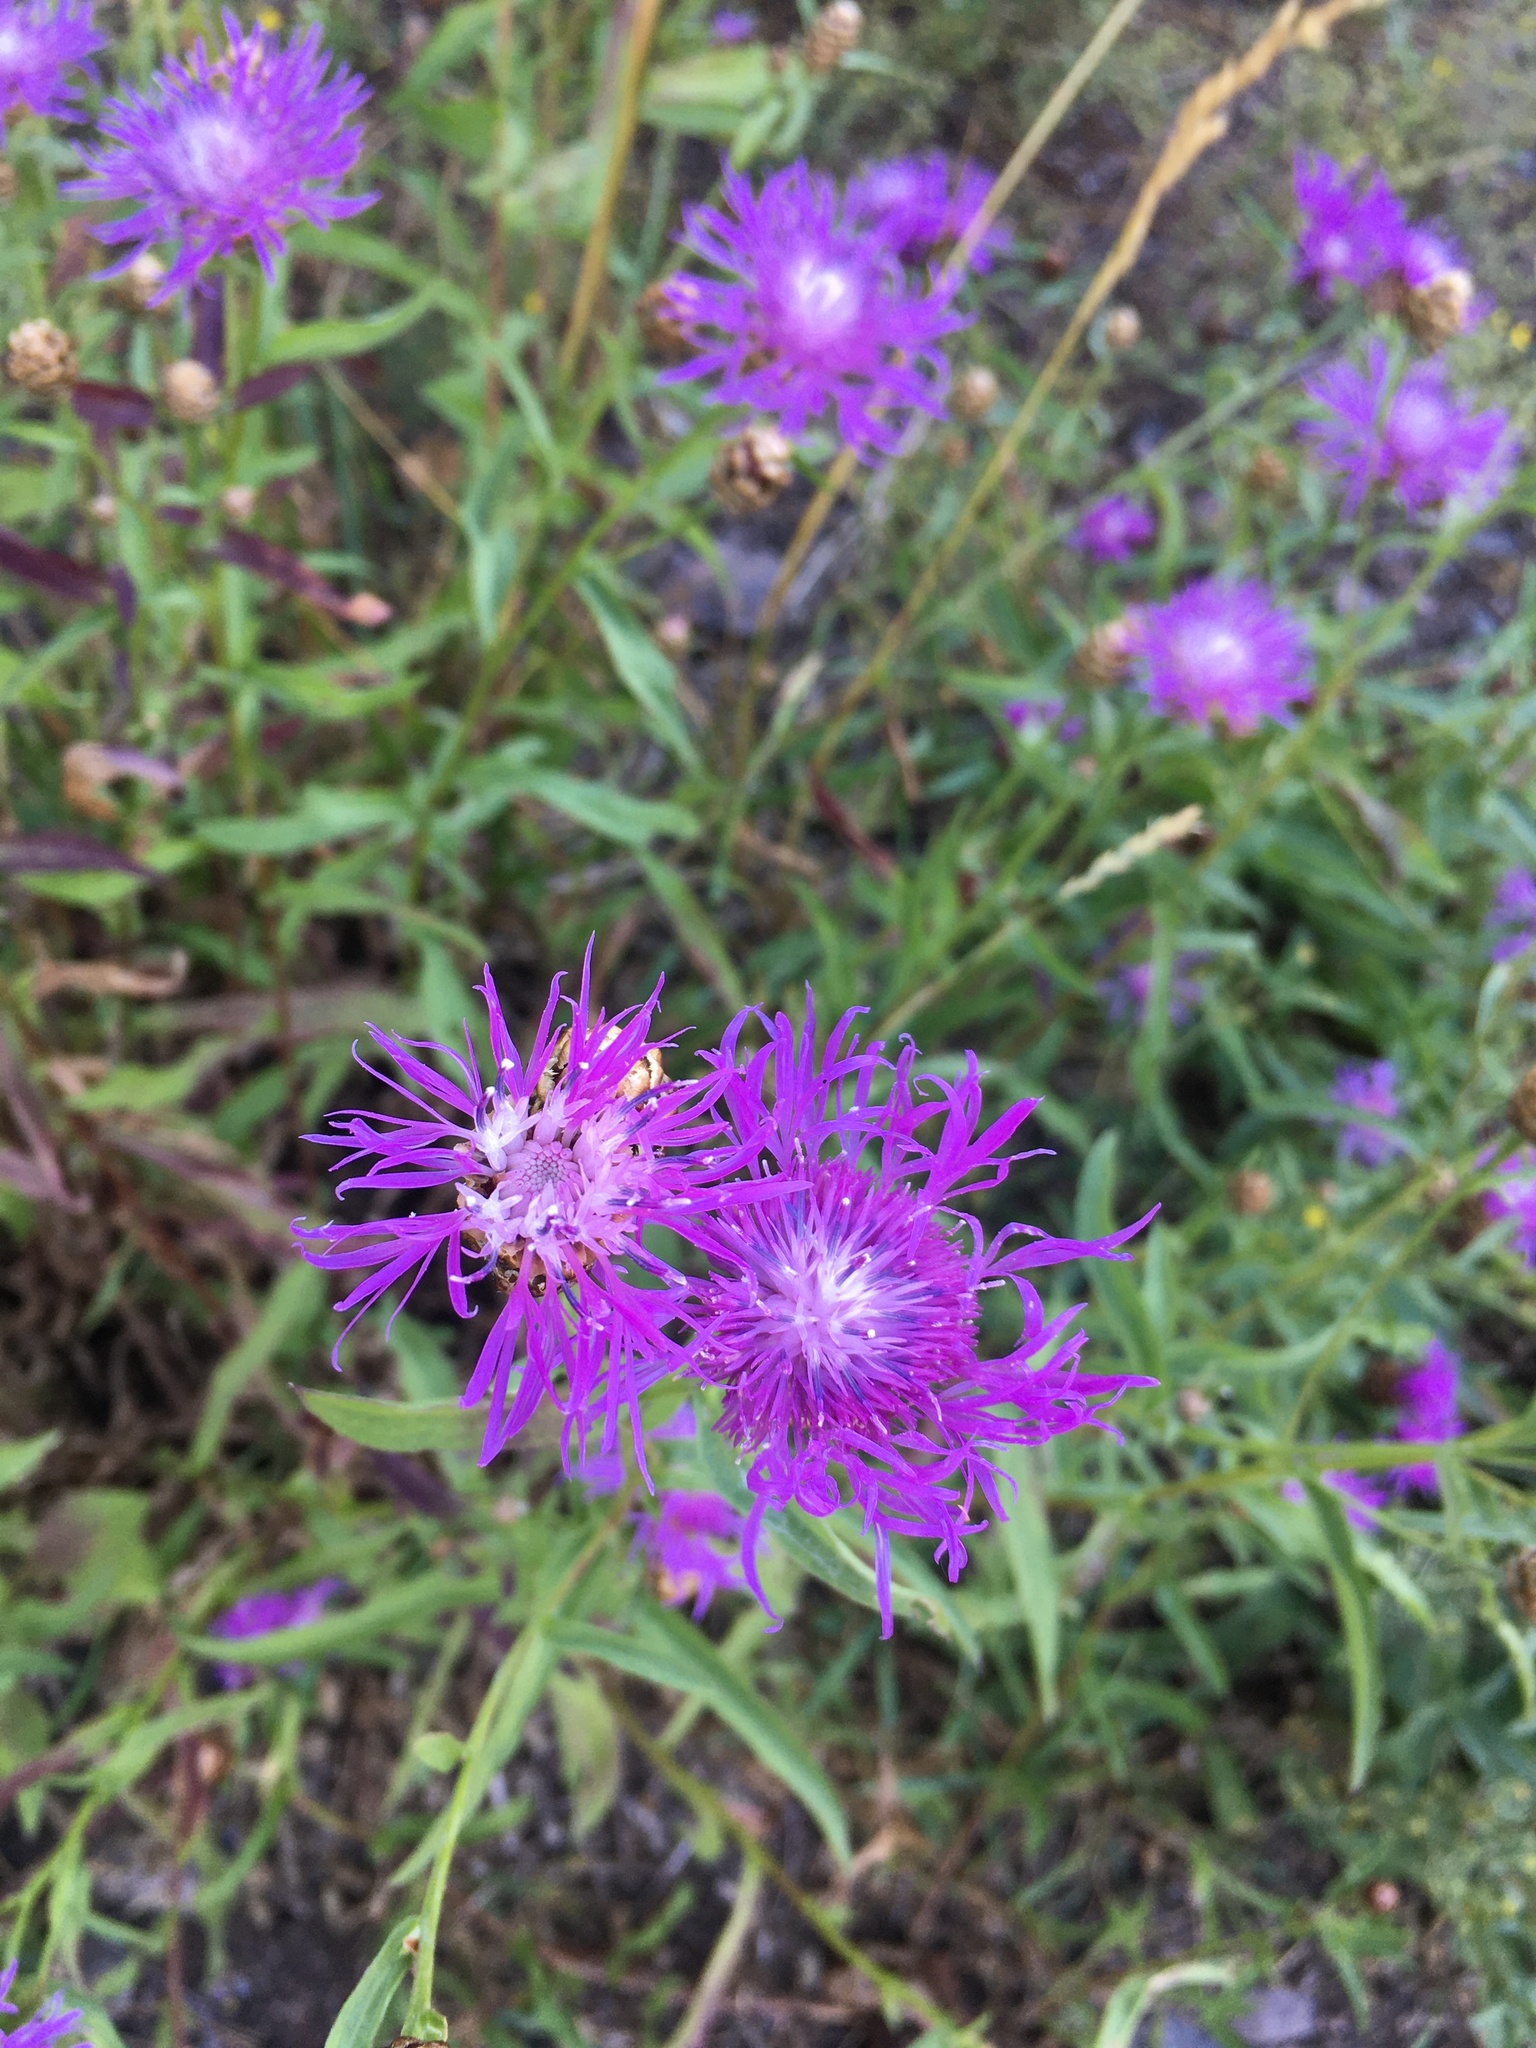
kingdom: Plantae
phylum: Tracheophyta
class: Magnoliopsida
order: Asterales
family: Asteraceae
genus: Centaurea
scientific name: Centaurea jacea
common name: Brown knapweed
